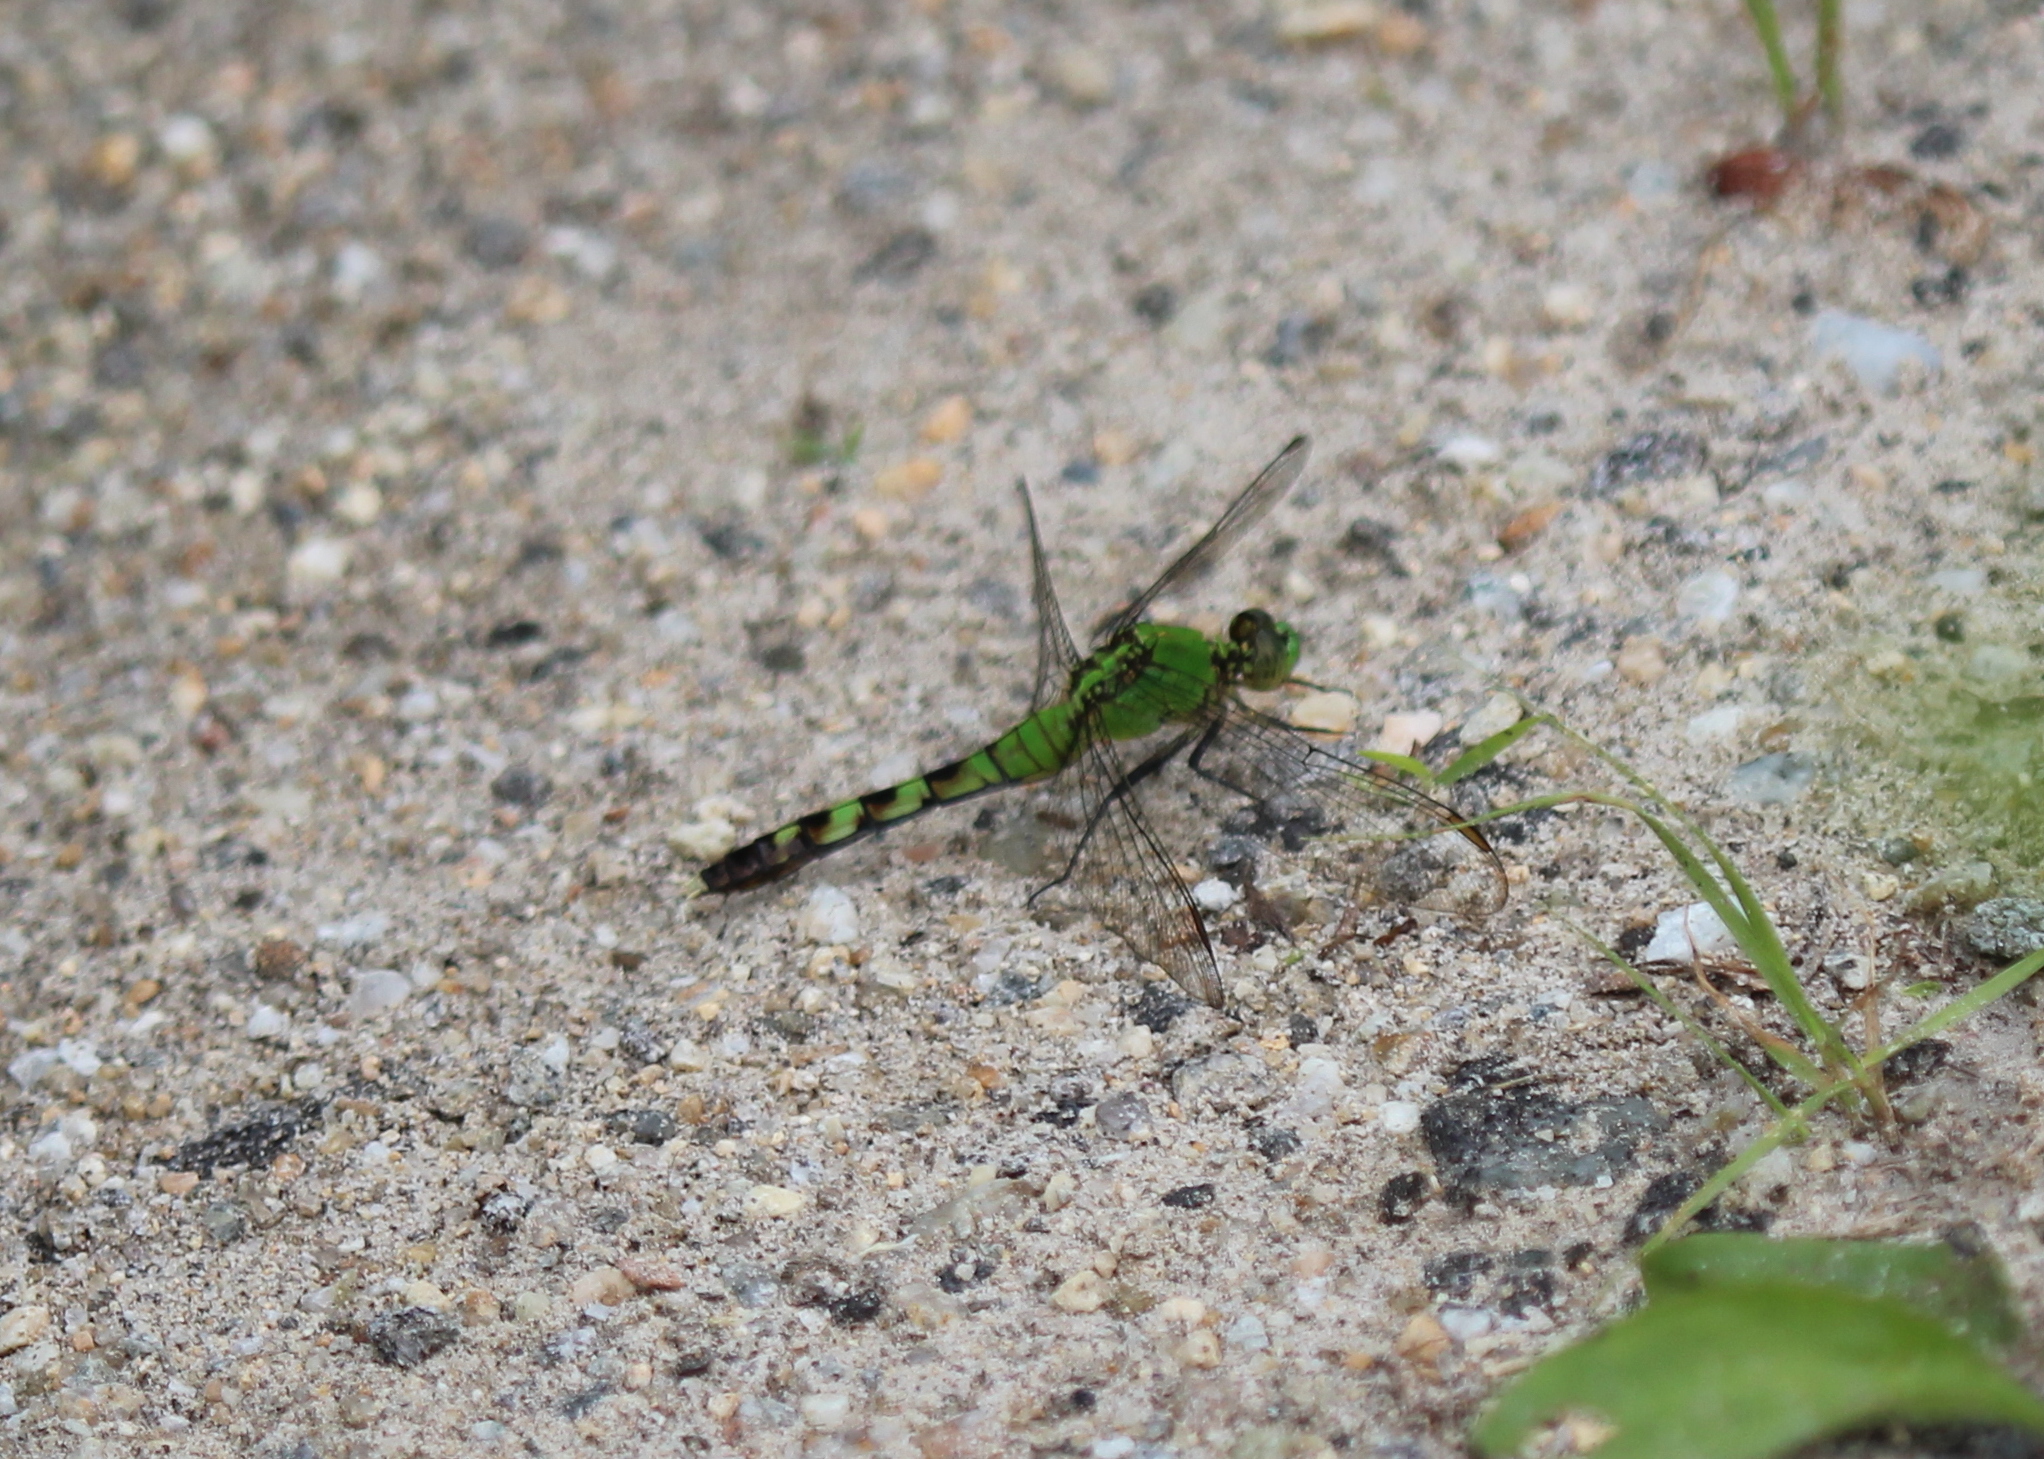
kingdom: Animalia
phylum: Arthropoda
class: Insecta
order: Odonata
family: Libellulidae
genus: Erythemis
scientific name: Erythemis simplicicollis
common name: Eastern pondhawk
